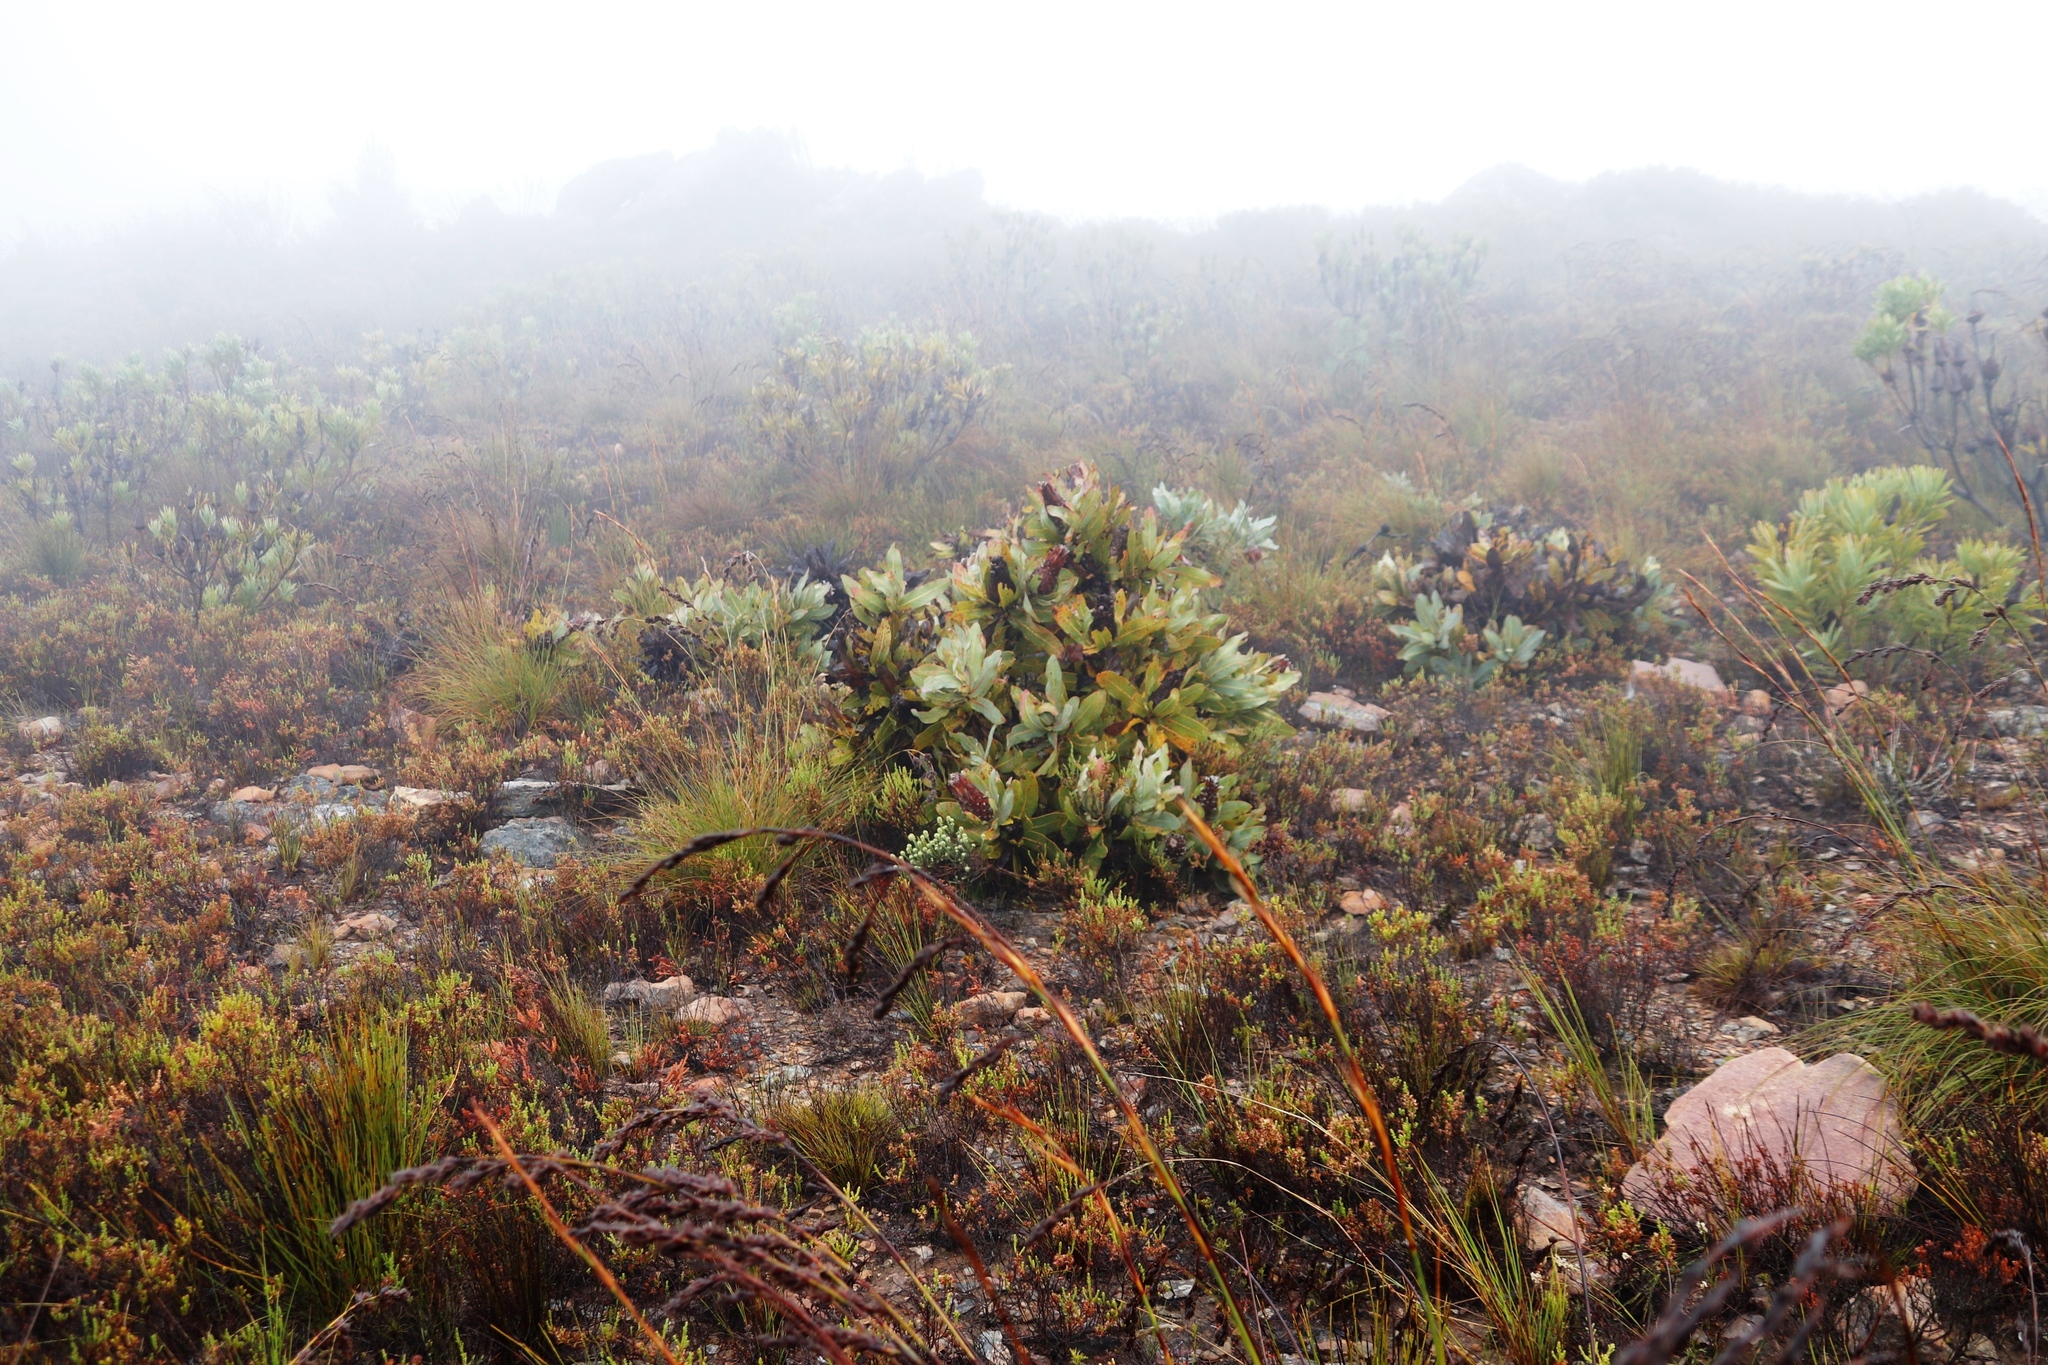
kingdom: Plantae
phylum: Tracheophyta
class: Magnoliopsida
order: Proteales
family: Proteaceae
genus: Protea
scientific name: Protea magnifica
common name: Bearded sugarbush
